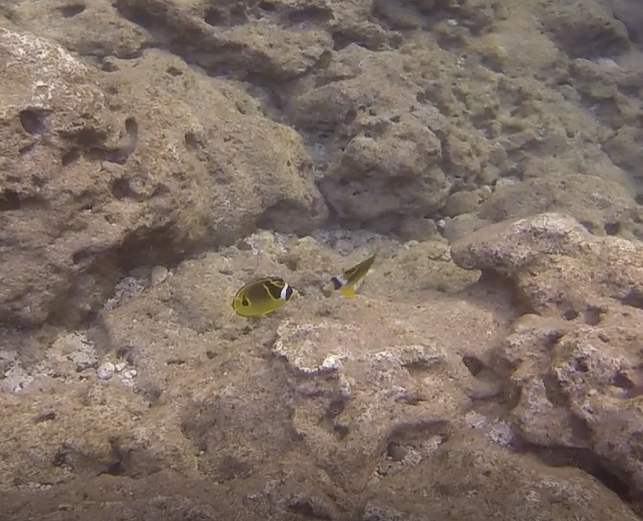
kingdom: Animalia
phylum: Chordata
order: Perciformes
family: Chaetodontidae
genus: Chaetodon
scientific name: Chaetodon lunula
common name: Raccoon butterflyfish
